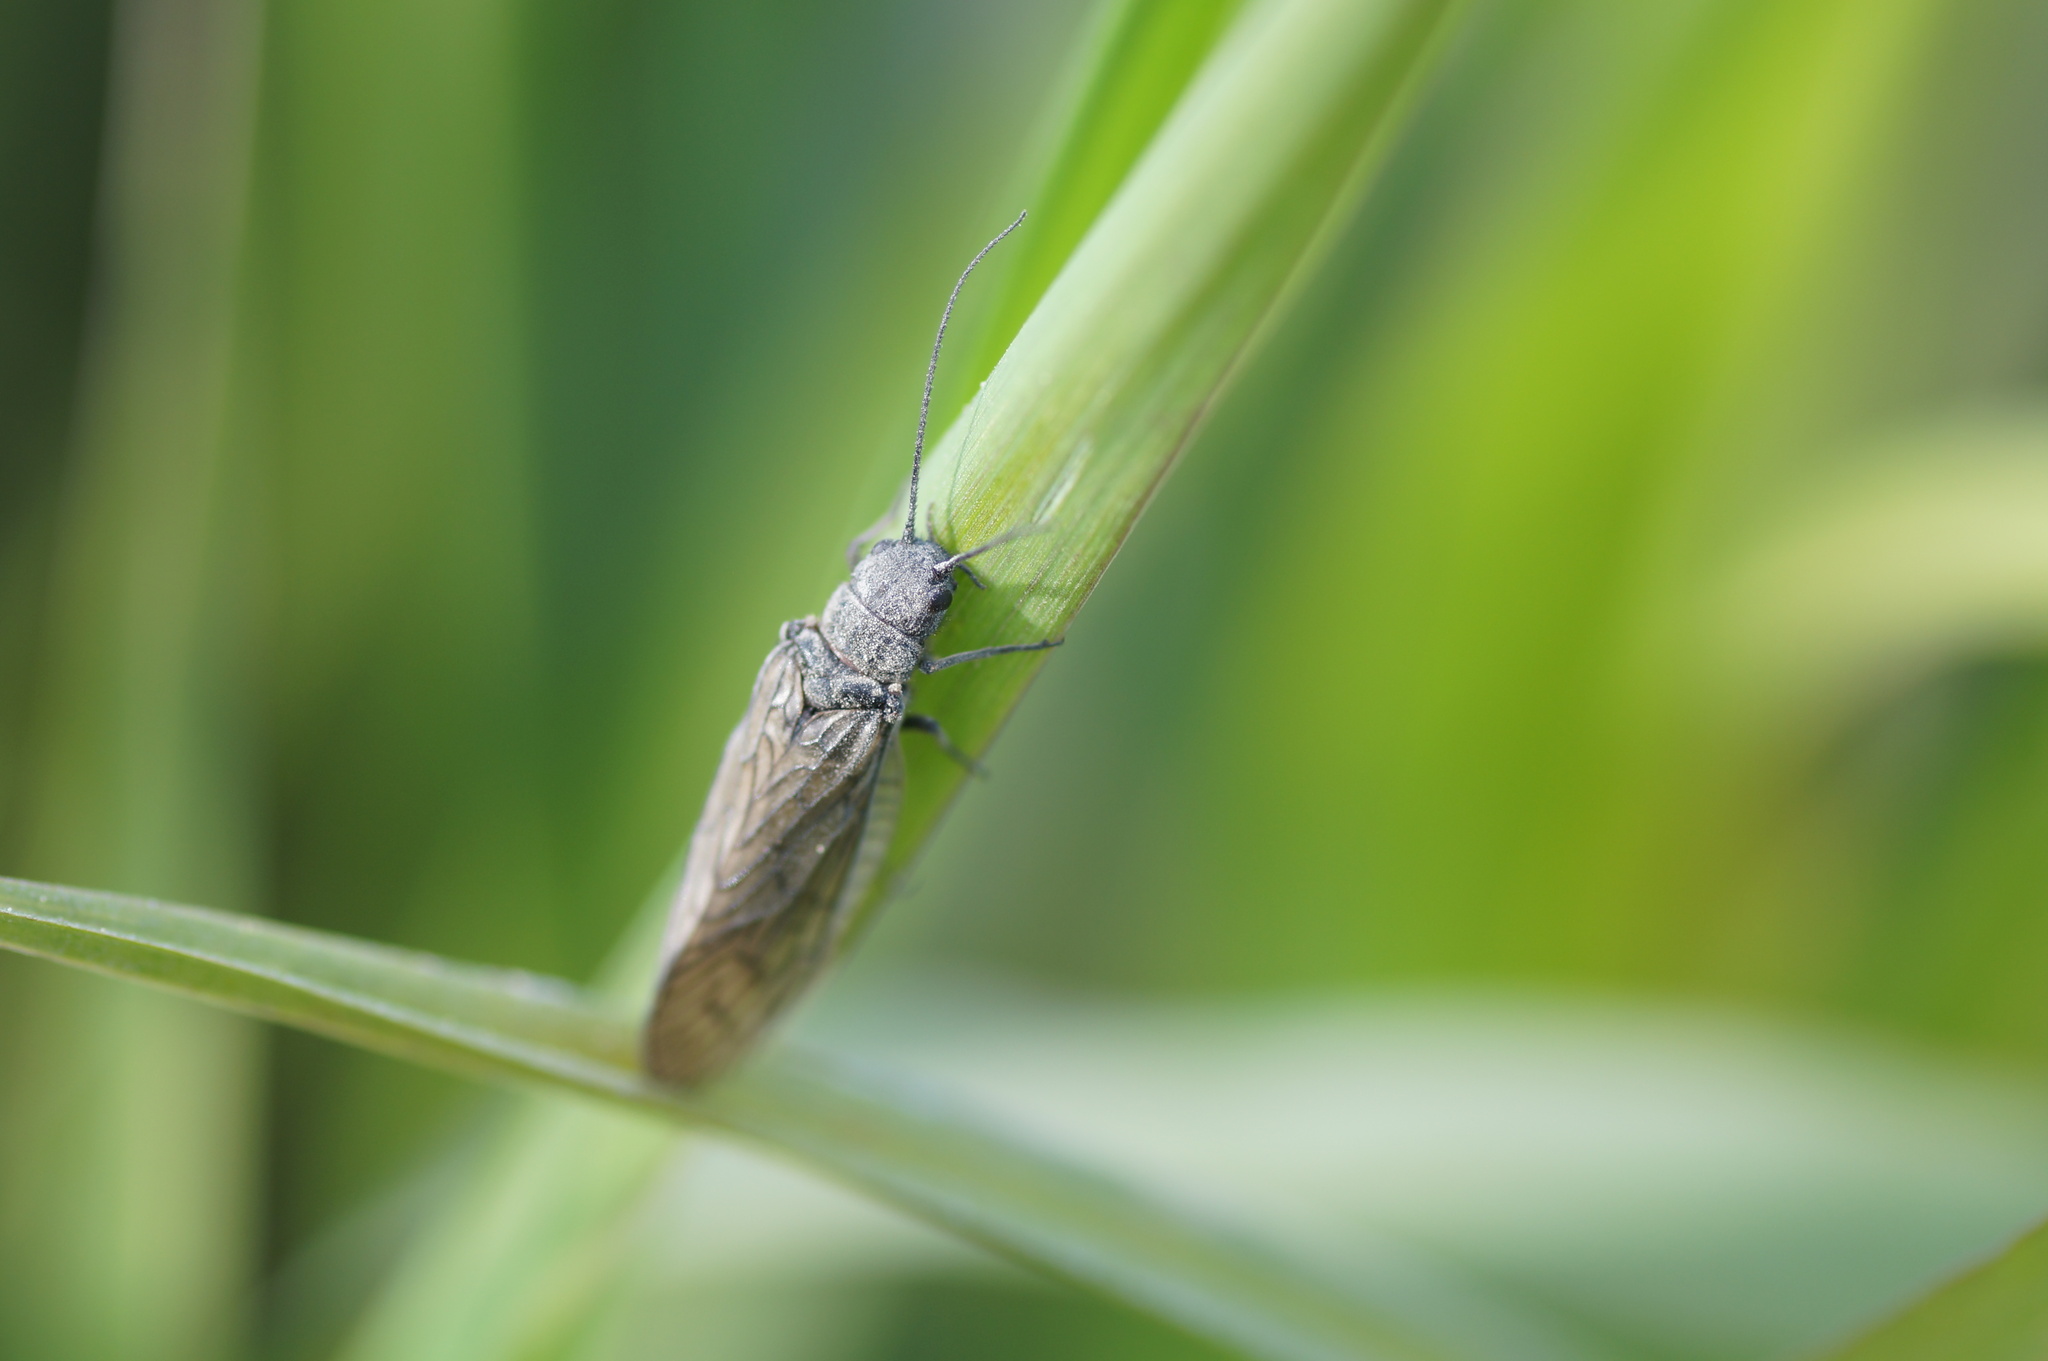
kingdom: Animalia
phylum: Arthropoda
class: Insecta
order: Megaloptera
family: Sialidae
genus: Sialis
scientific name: Sialis
